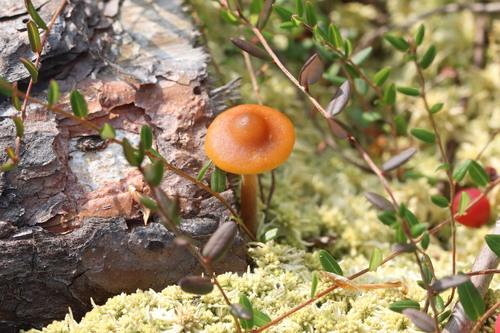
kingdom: Fungi
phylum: Basidiomycota
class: Agaricomycetes
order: Agaricales
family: Hymenogastraceae
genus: Galerina
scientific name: Galerina tibiicystis
